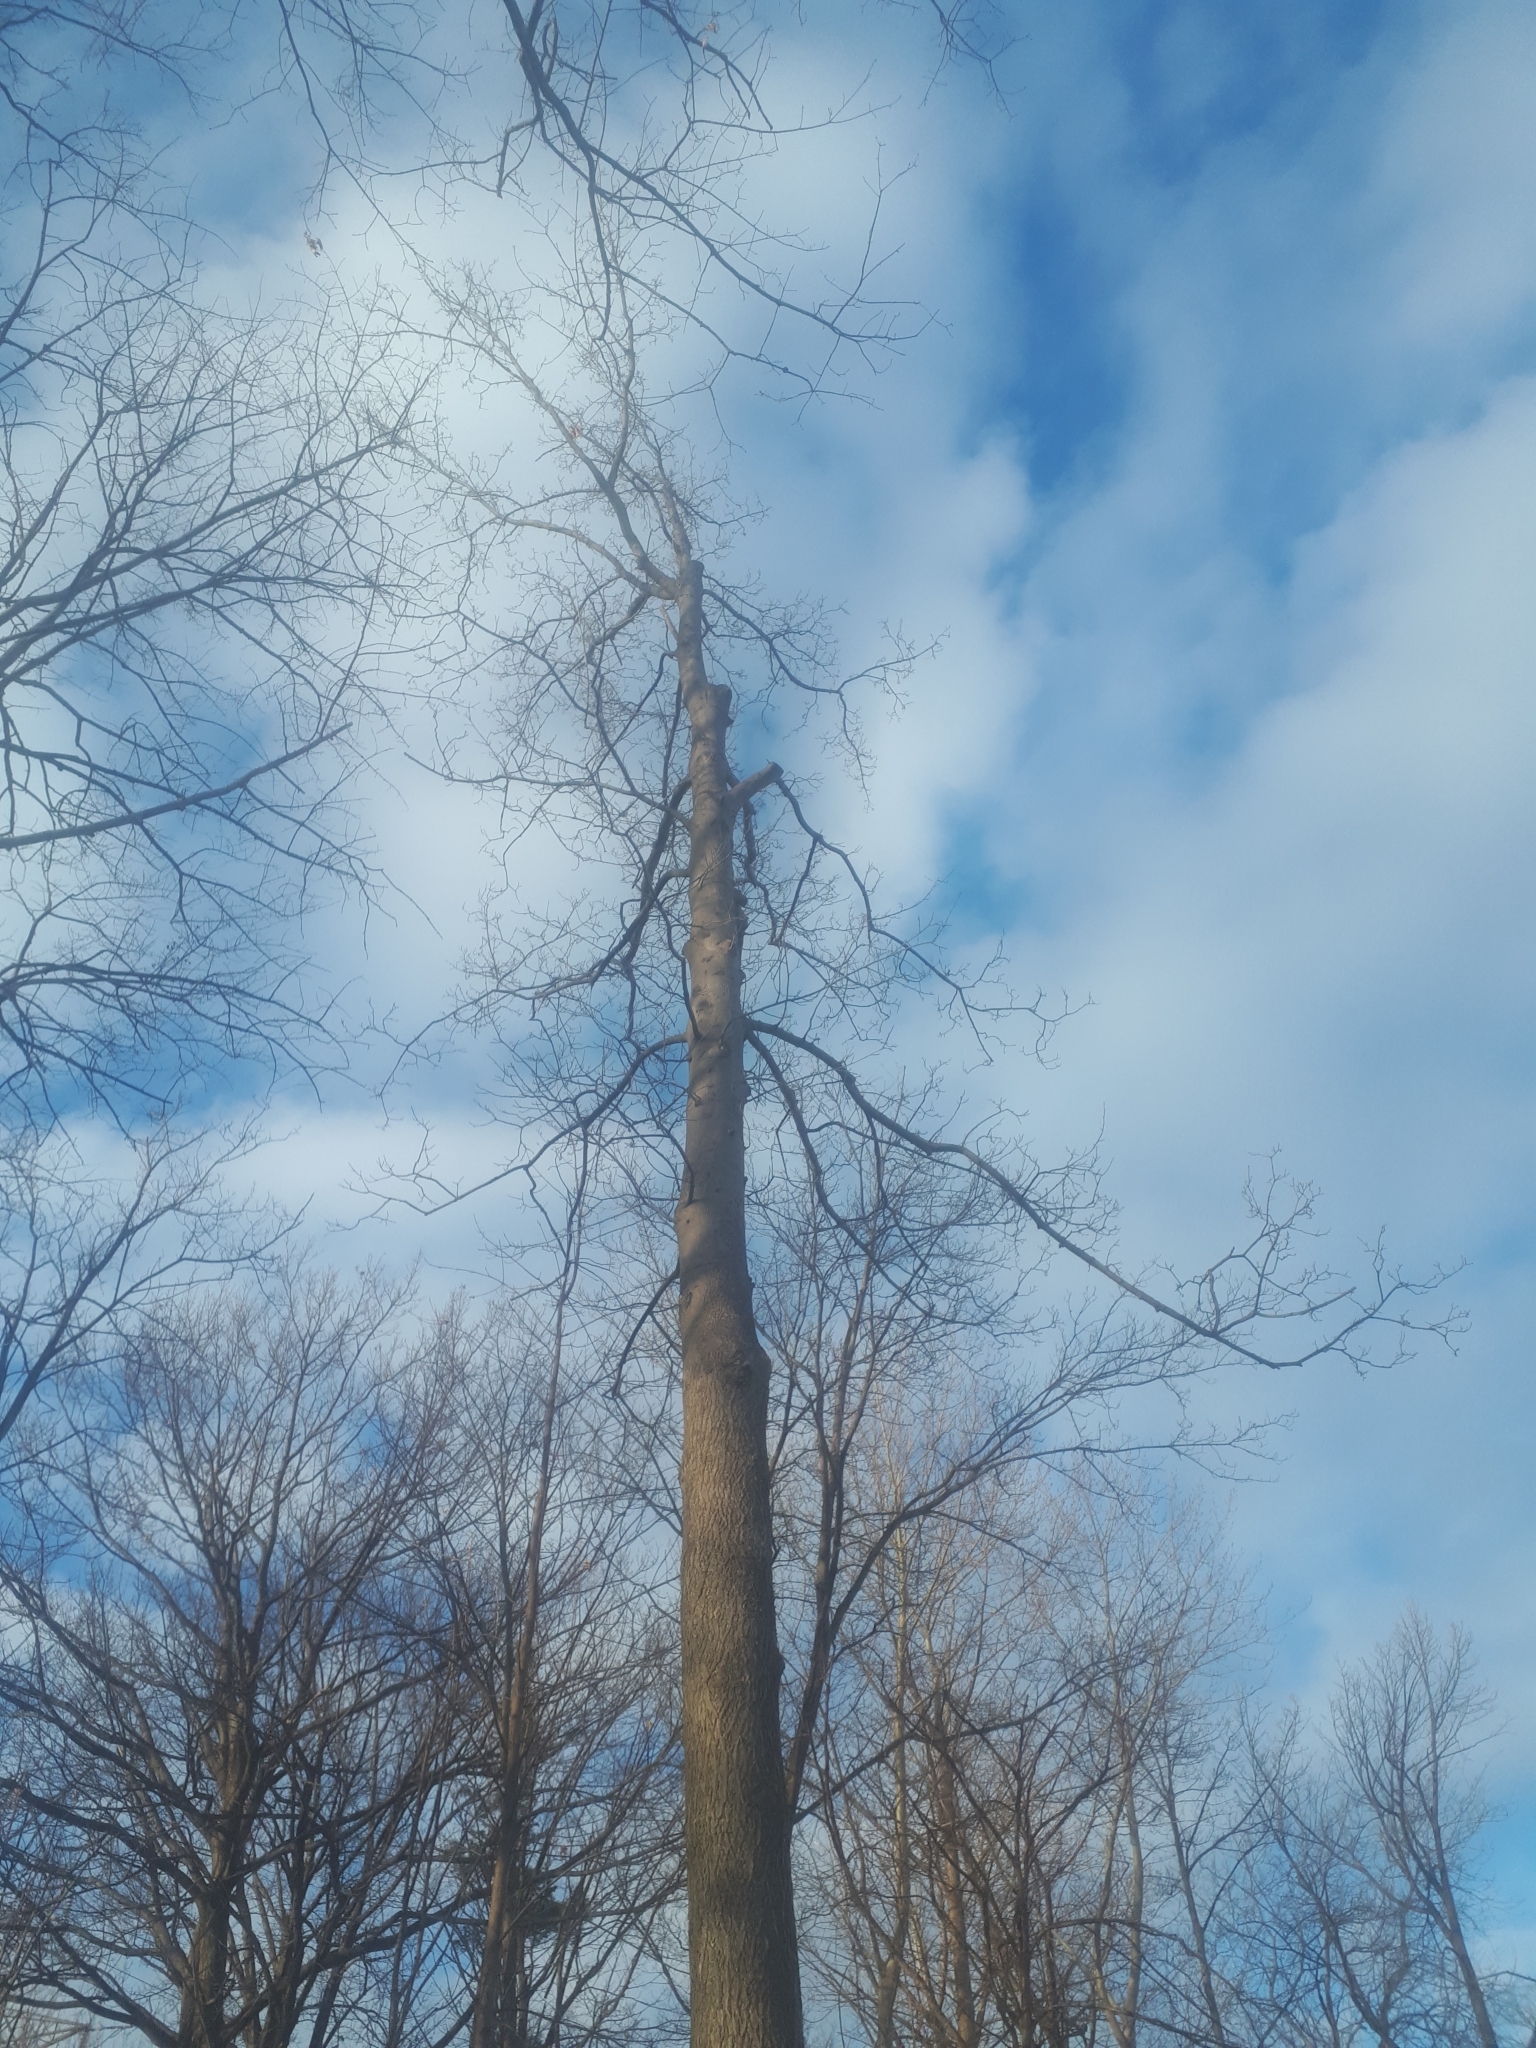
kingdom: Plantae
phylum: Tracheophyta
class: Magnoliopsida
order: Fagales
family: Juglandaceae
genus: Carya
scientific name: Carya cordiformis
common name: Bitternut hickory
